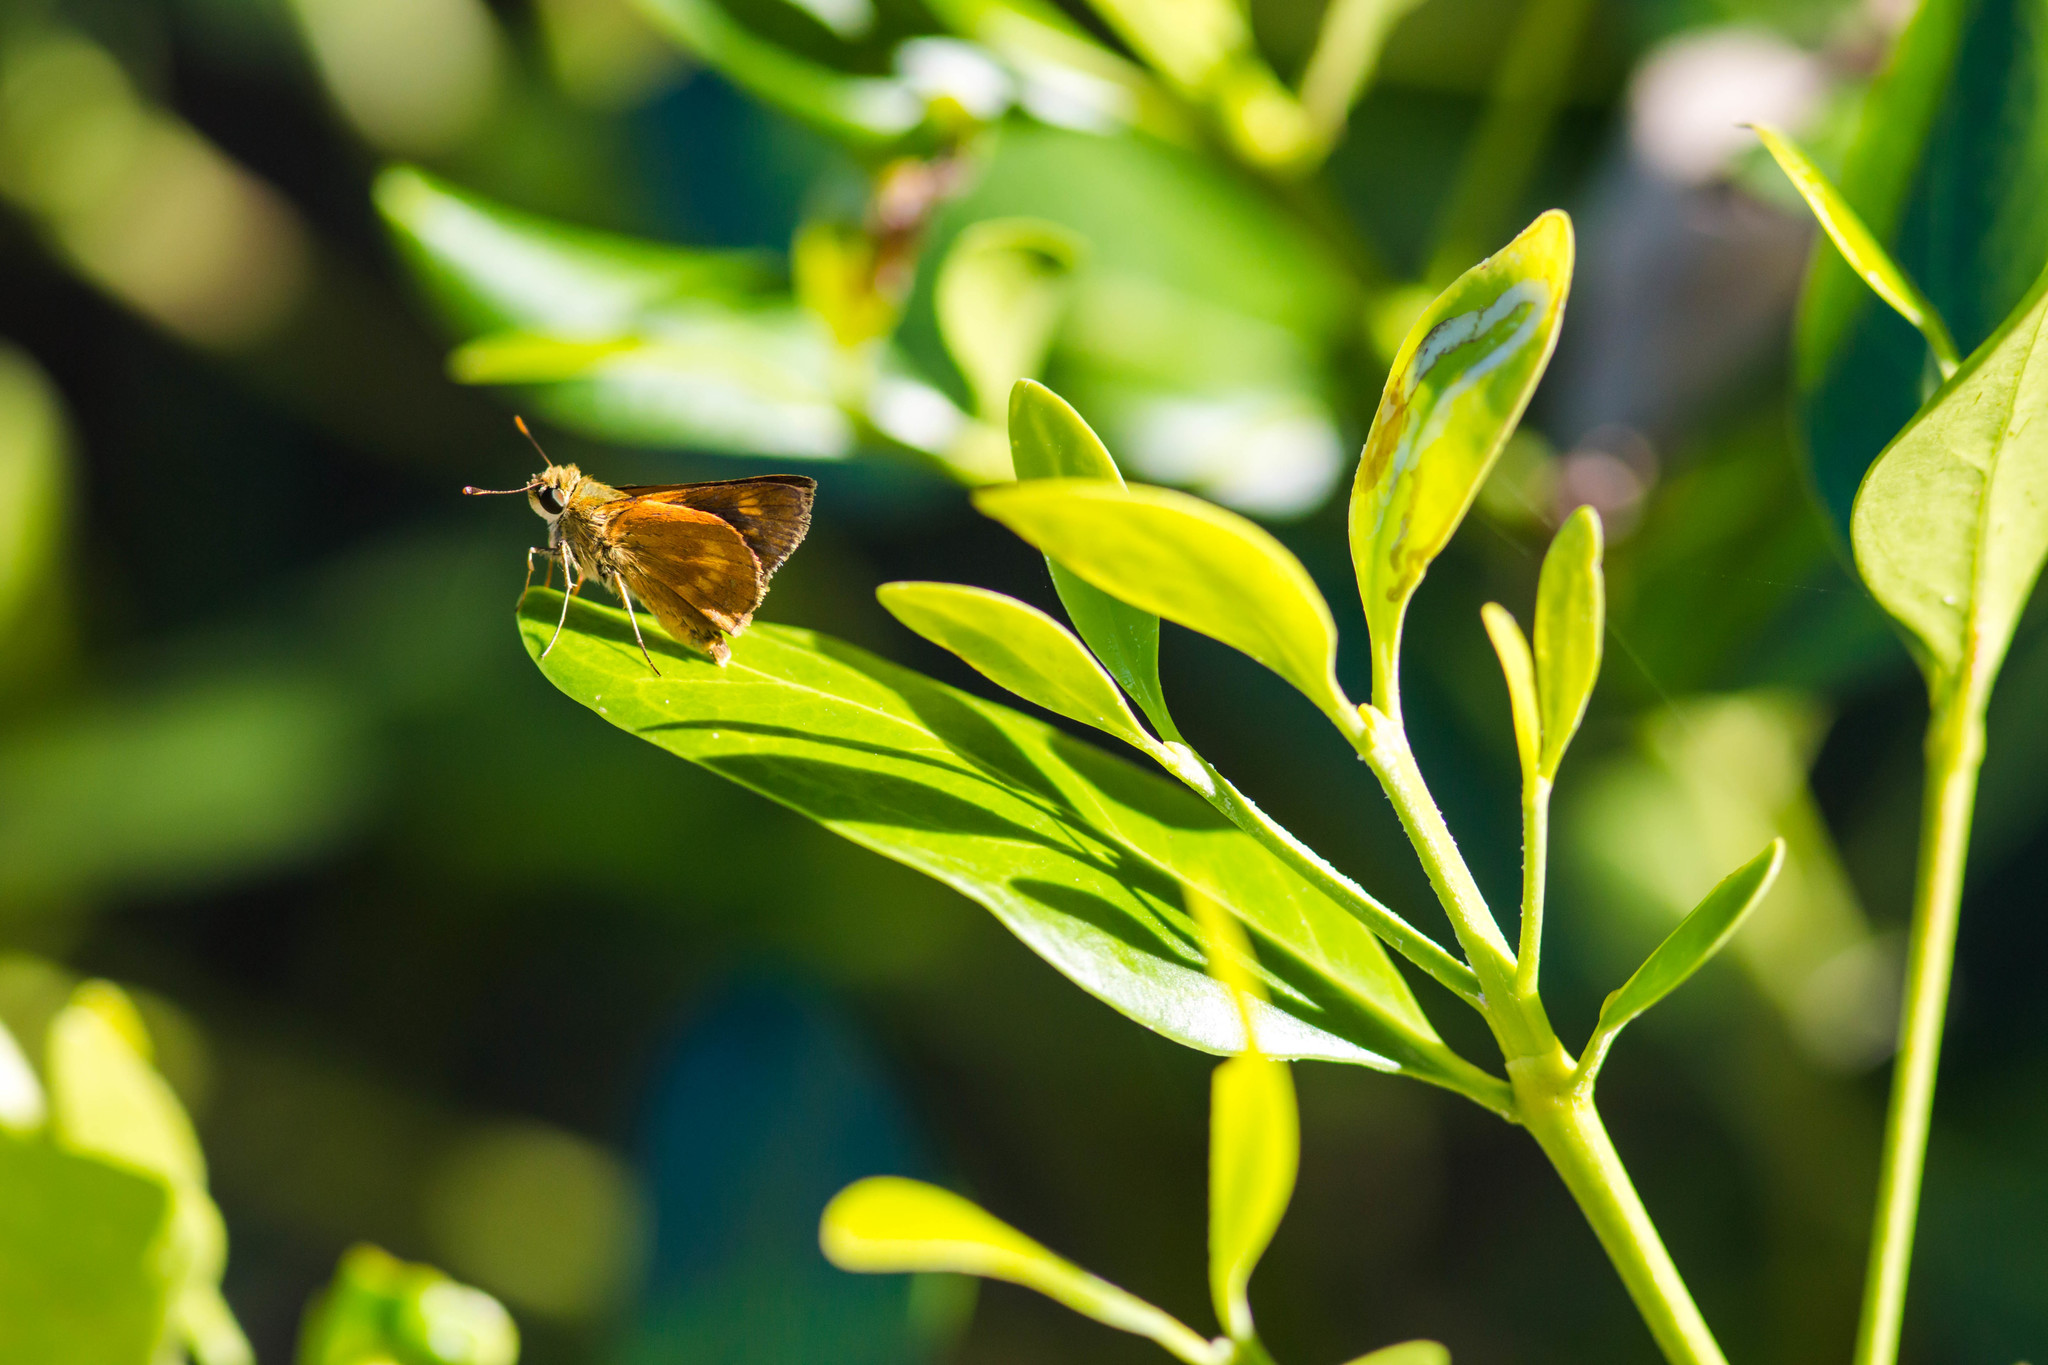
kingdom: Animalia
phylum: Arthropoda
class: Insecta
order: Lepidoptera
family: Hesperiidae
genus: Polites
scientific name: Polites otho
